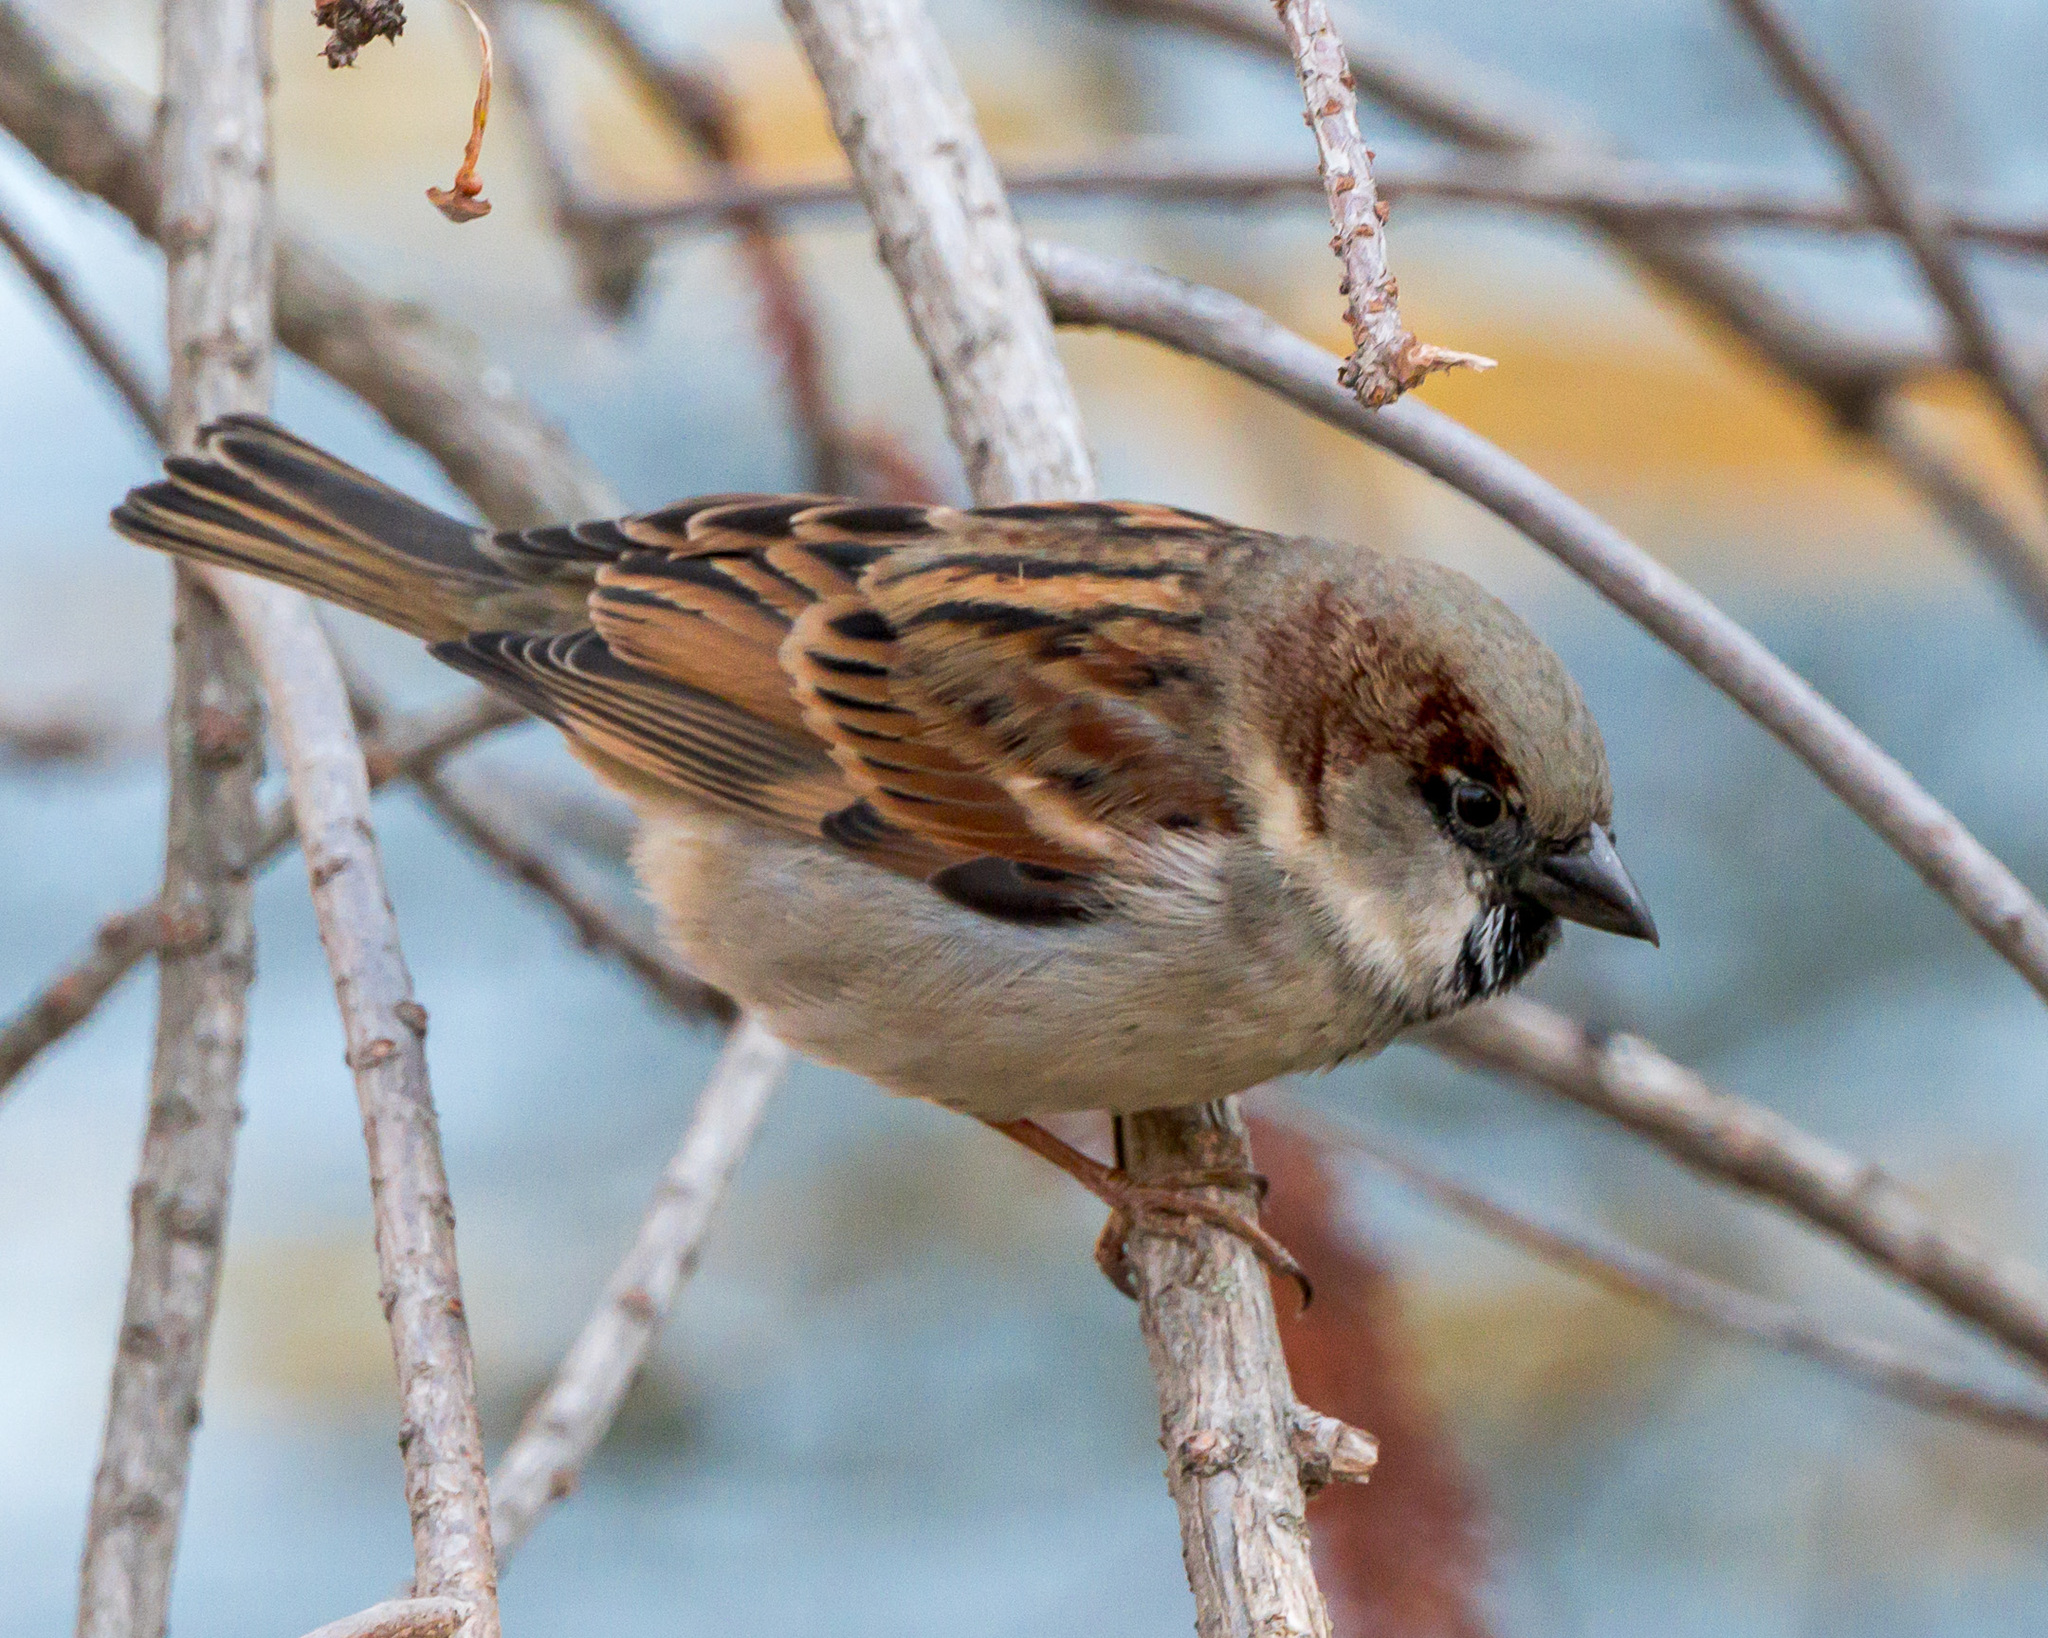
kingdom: Animalia
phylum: Chordata
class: Aves
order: Passeriformes
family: Passeridae
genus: Passer
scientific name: Passer domesticus
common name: House sparrow
